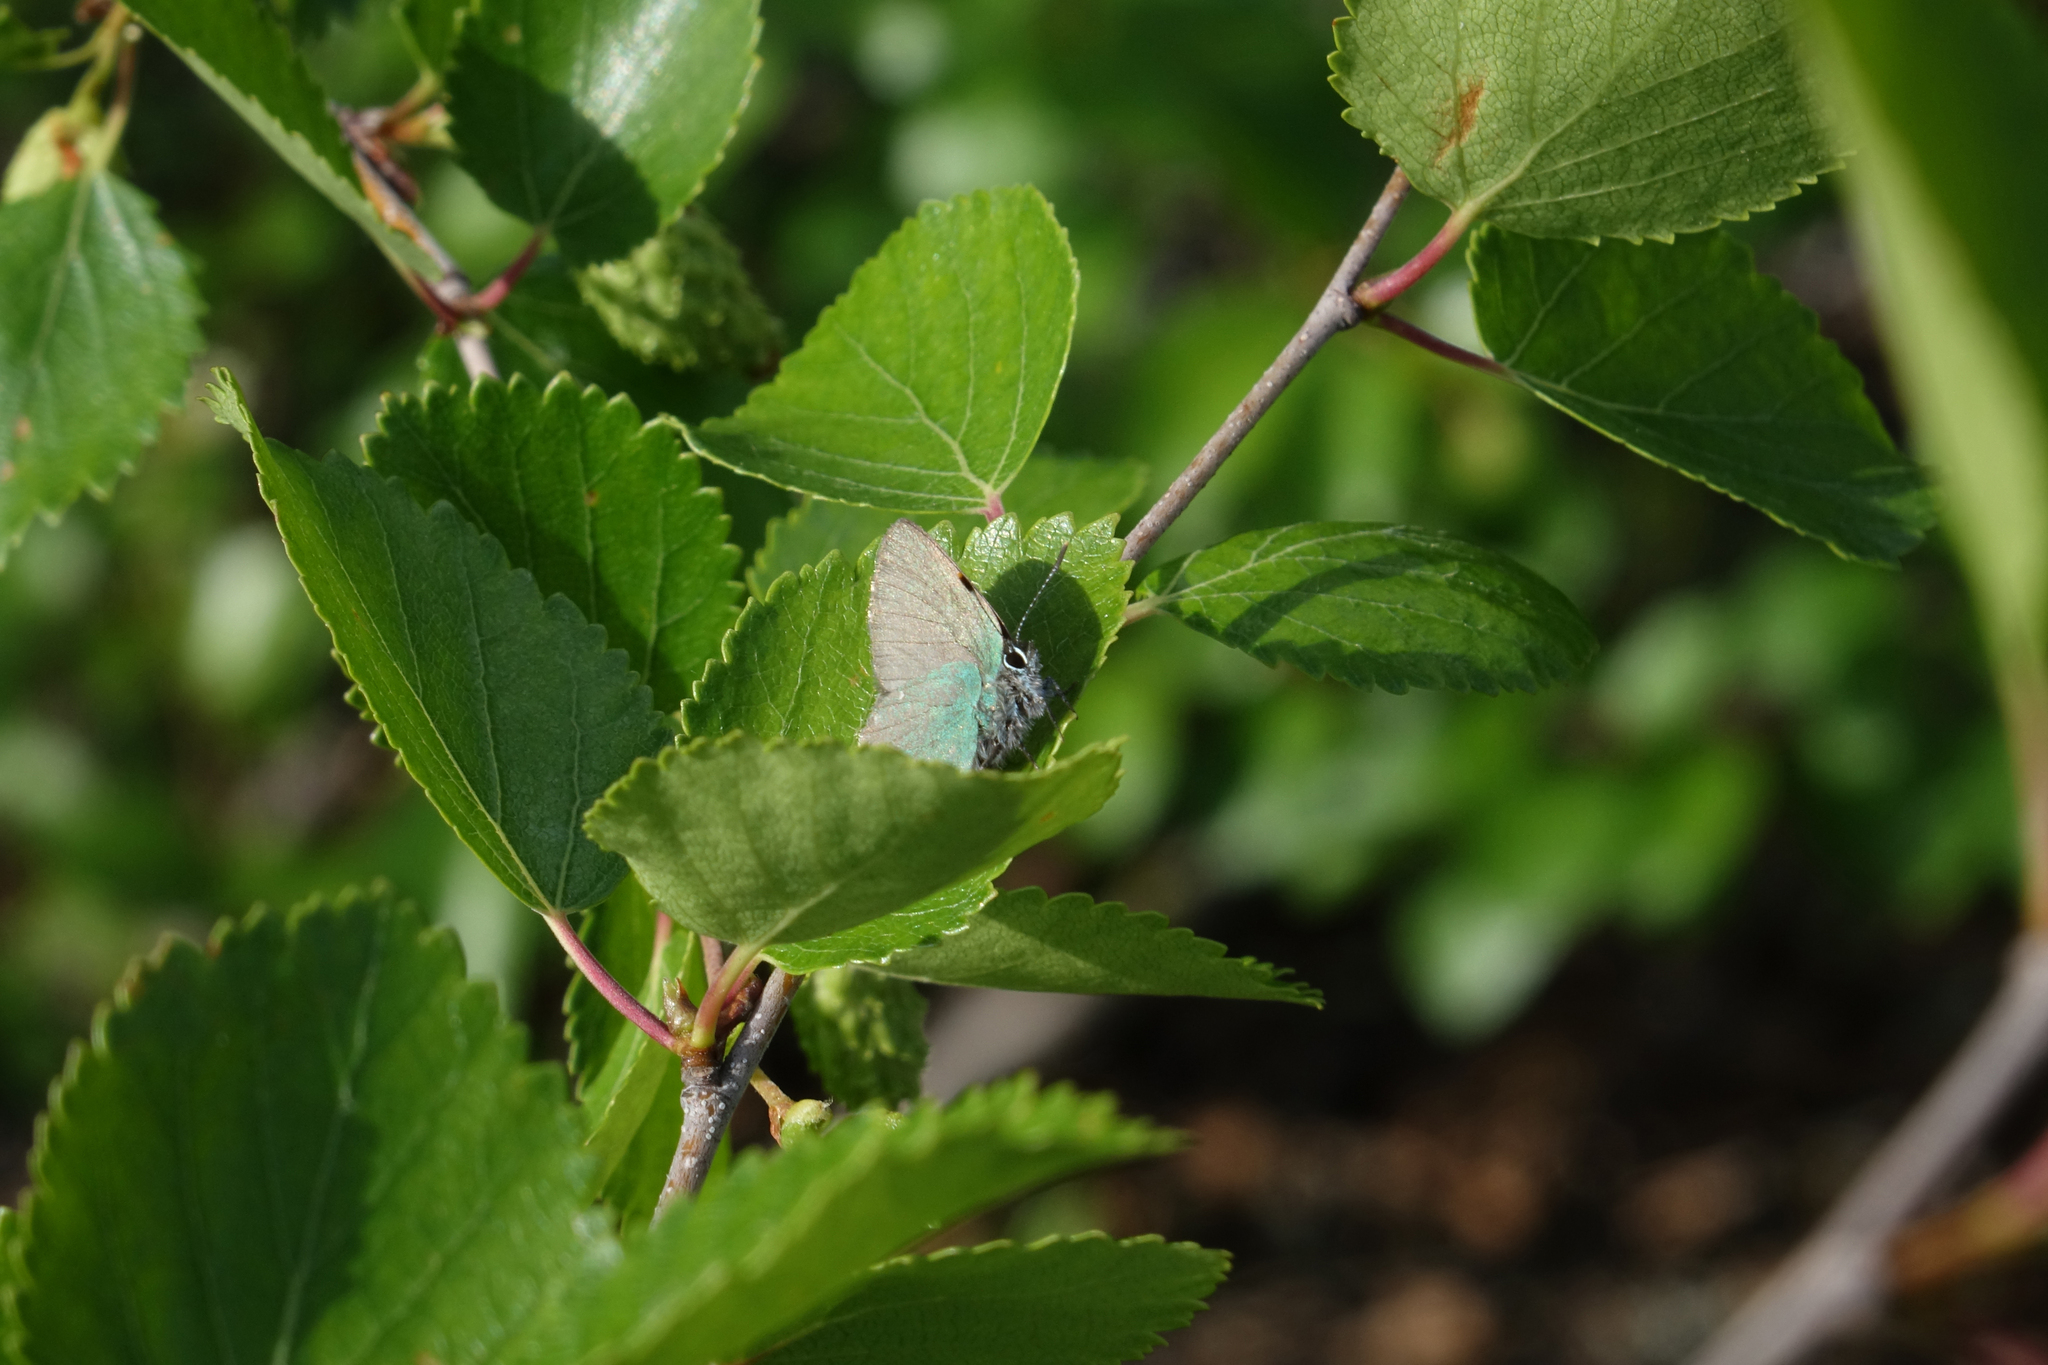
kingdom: Animalia
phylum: Arthropoda
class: Insecta
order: Lepidoptera
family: Lycaenidae
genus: Callophrys
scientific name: Callophrys rubi
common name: Green hairstreak
